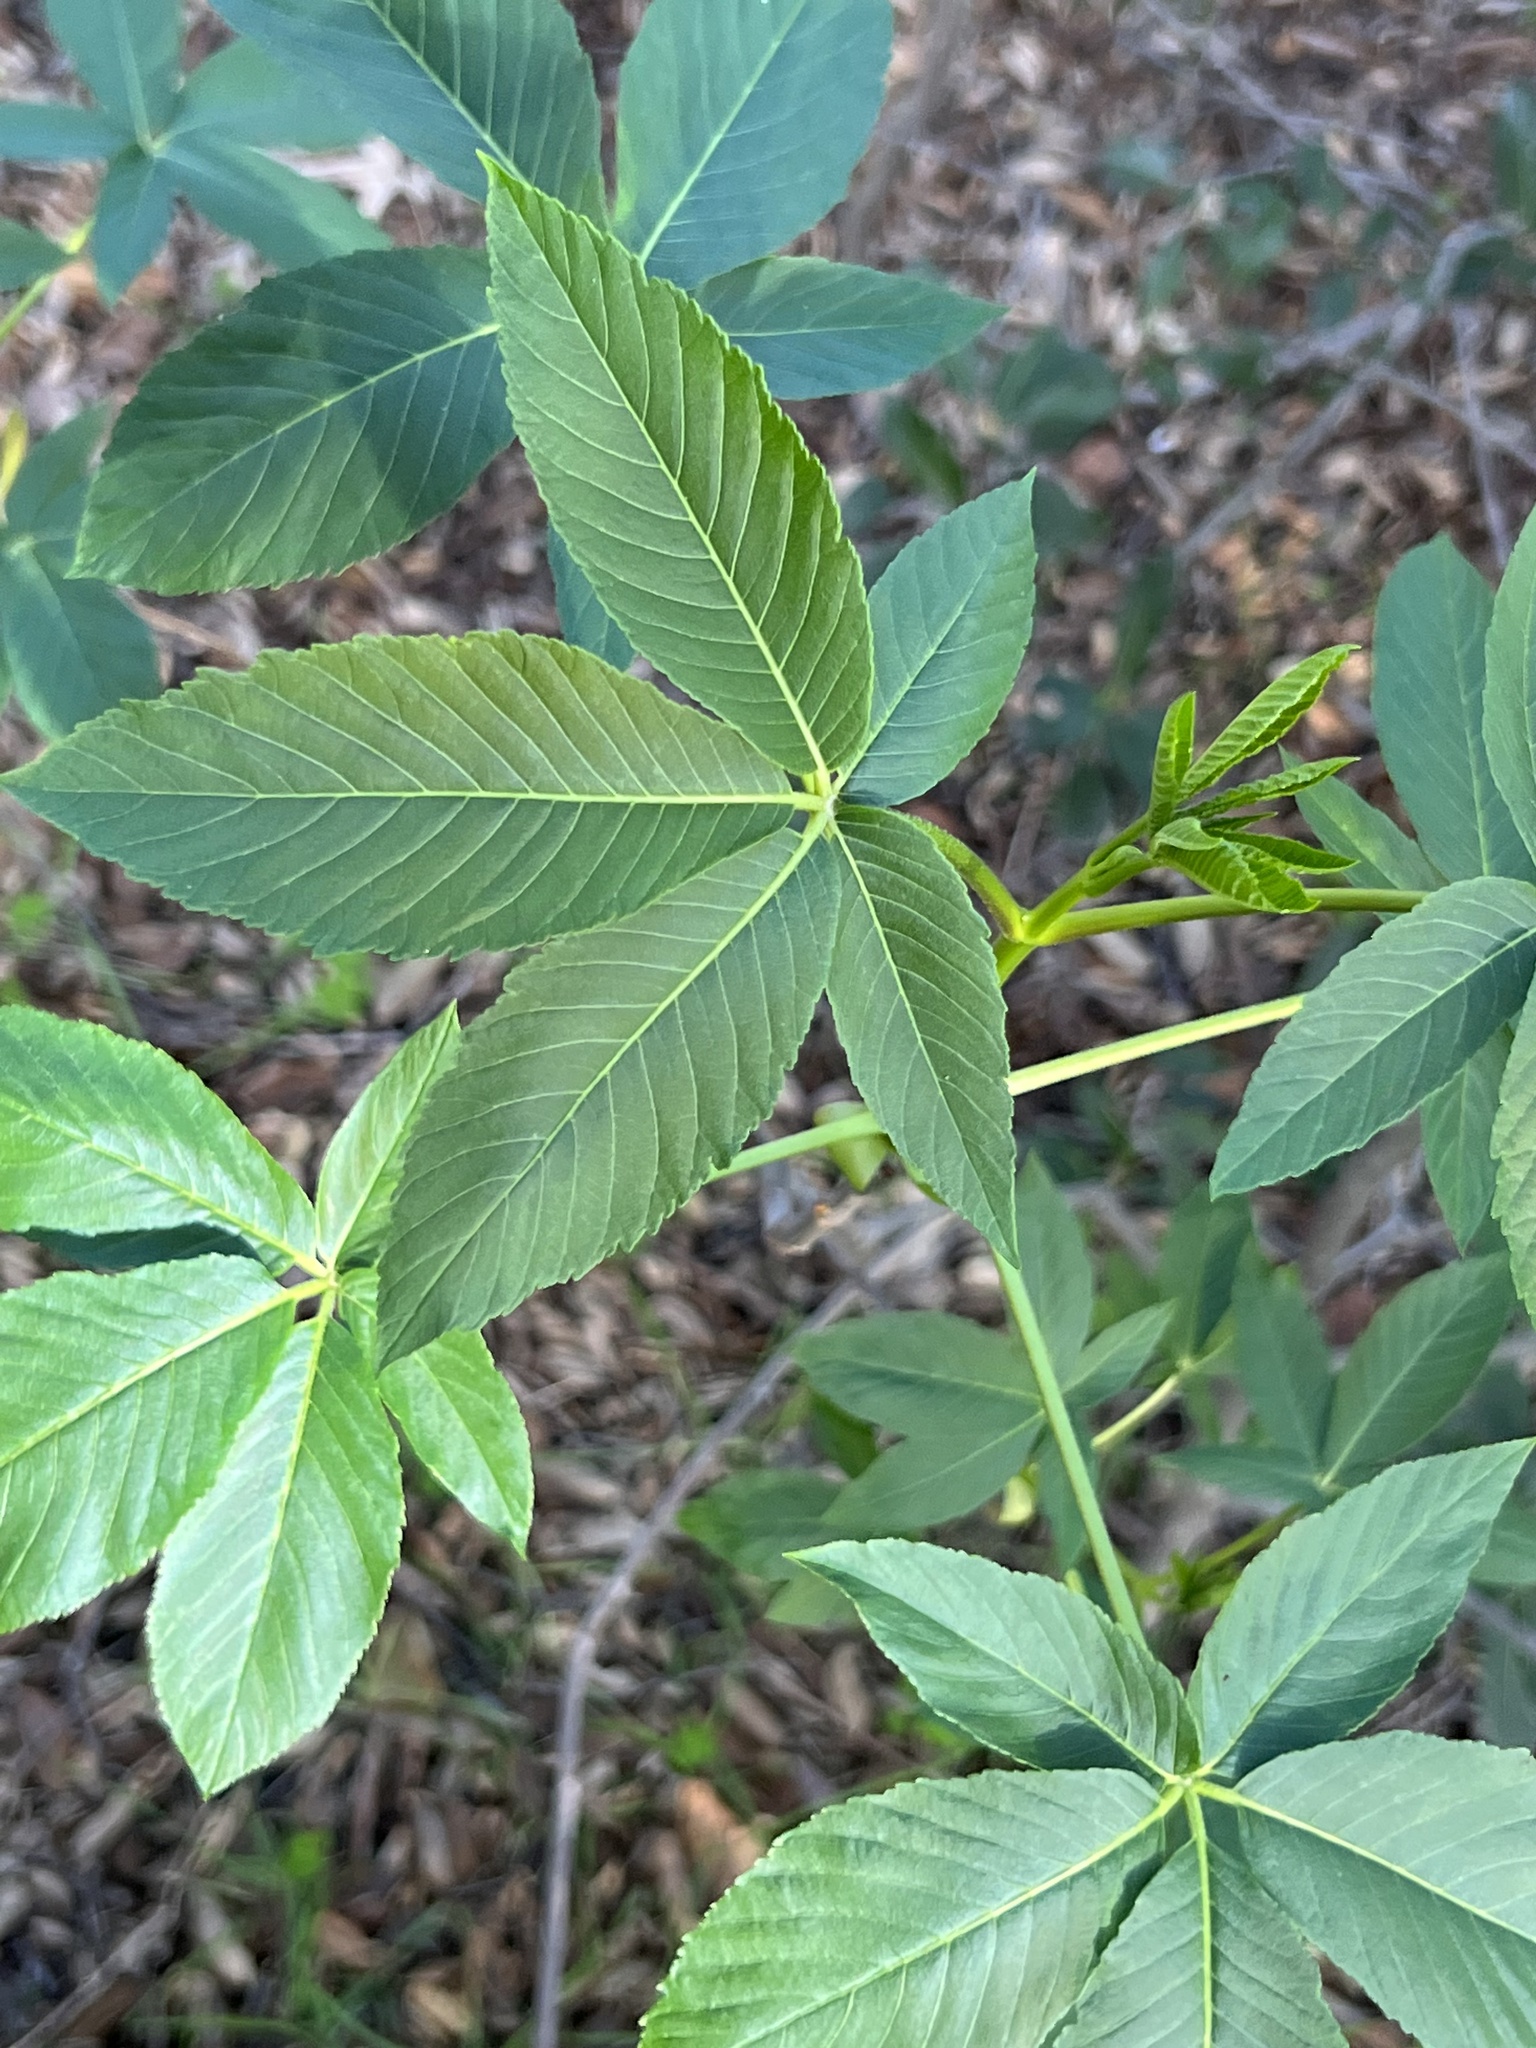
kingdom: Plantae
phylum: Tracheophyta
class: Magnoliopsida
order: Sapindales
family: Sapindaceae
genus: Aesculus
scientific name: Aesculus californica
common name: California buckeye
